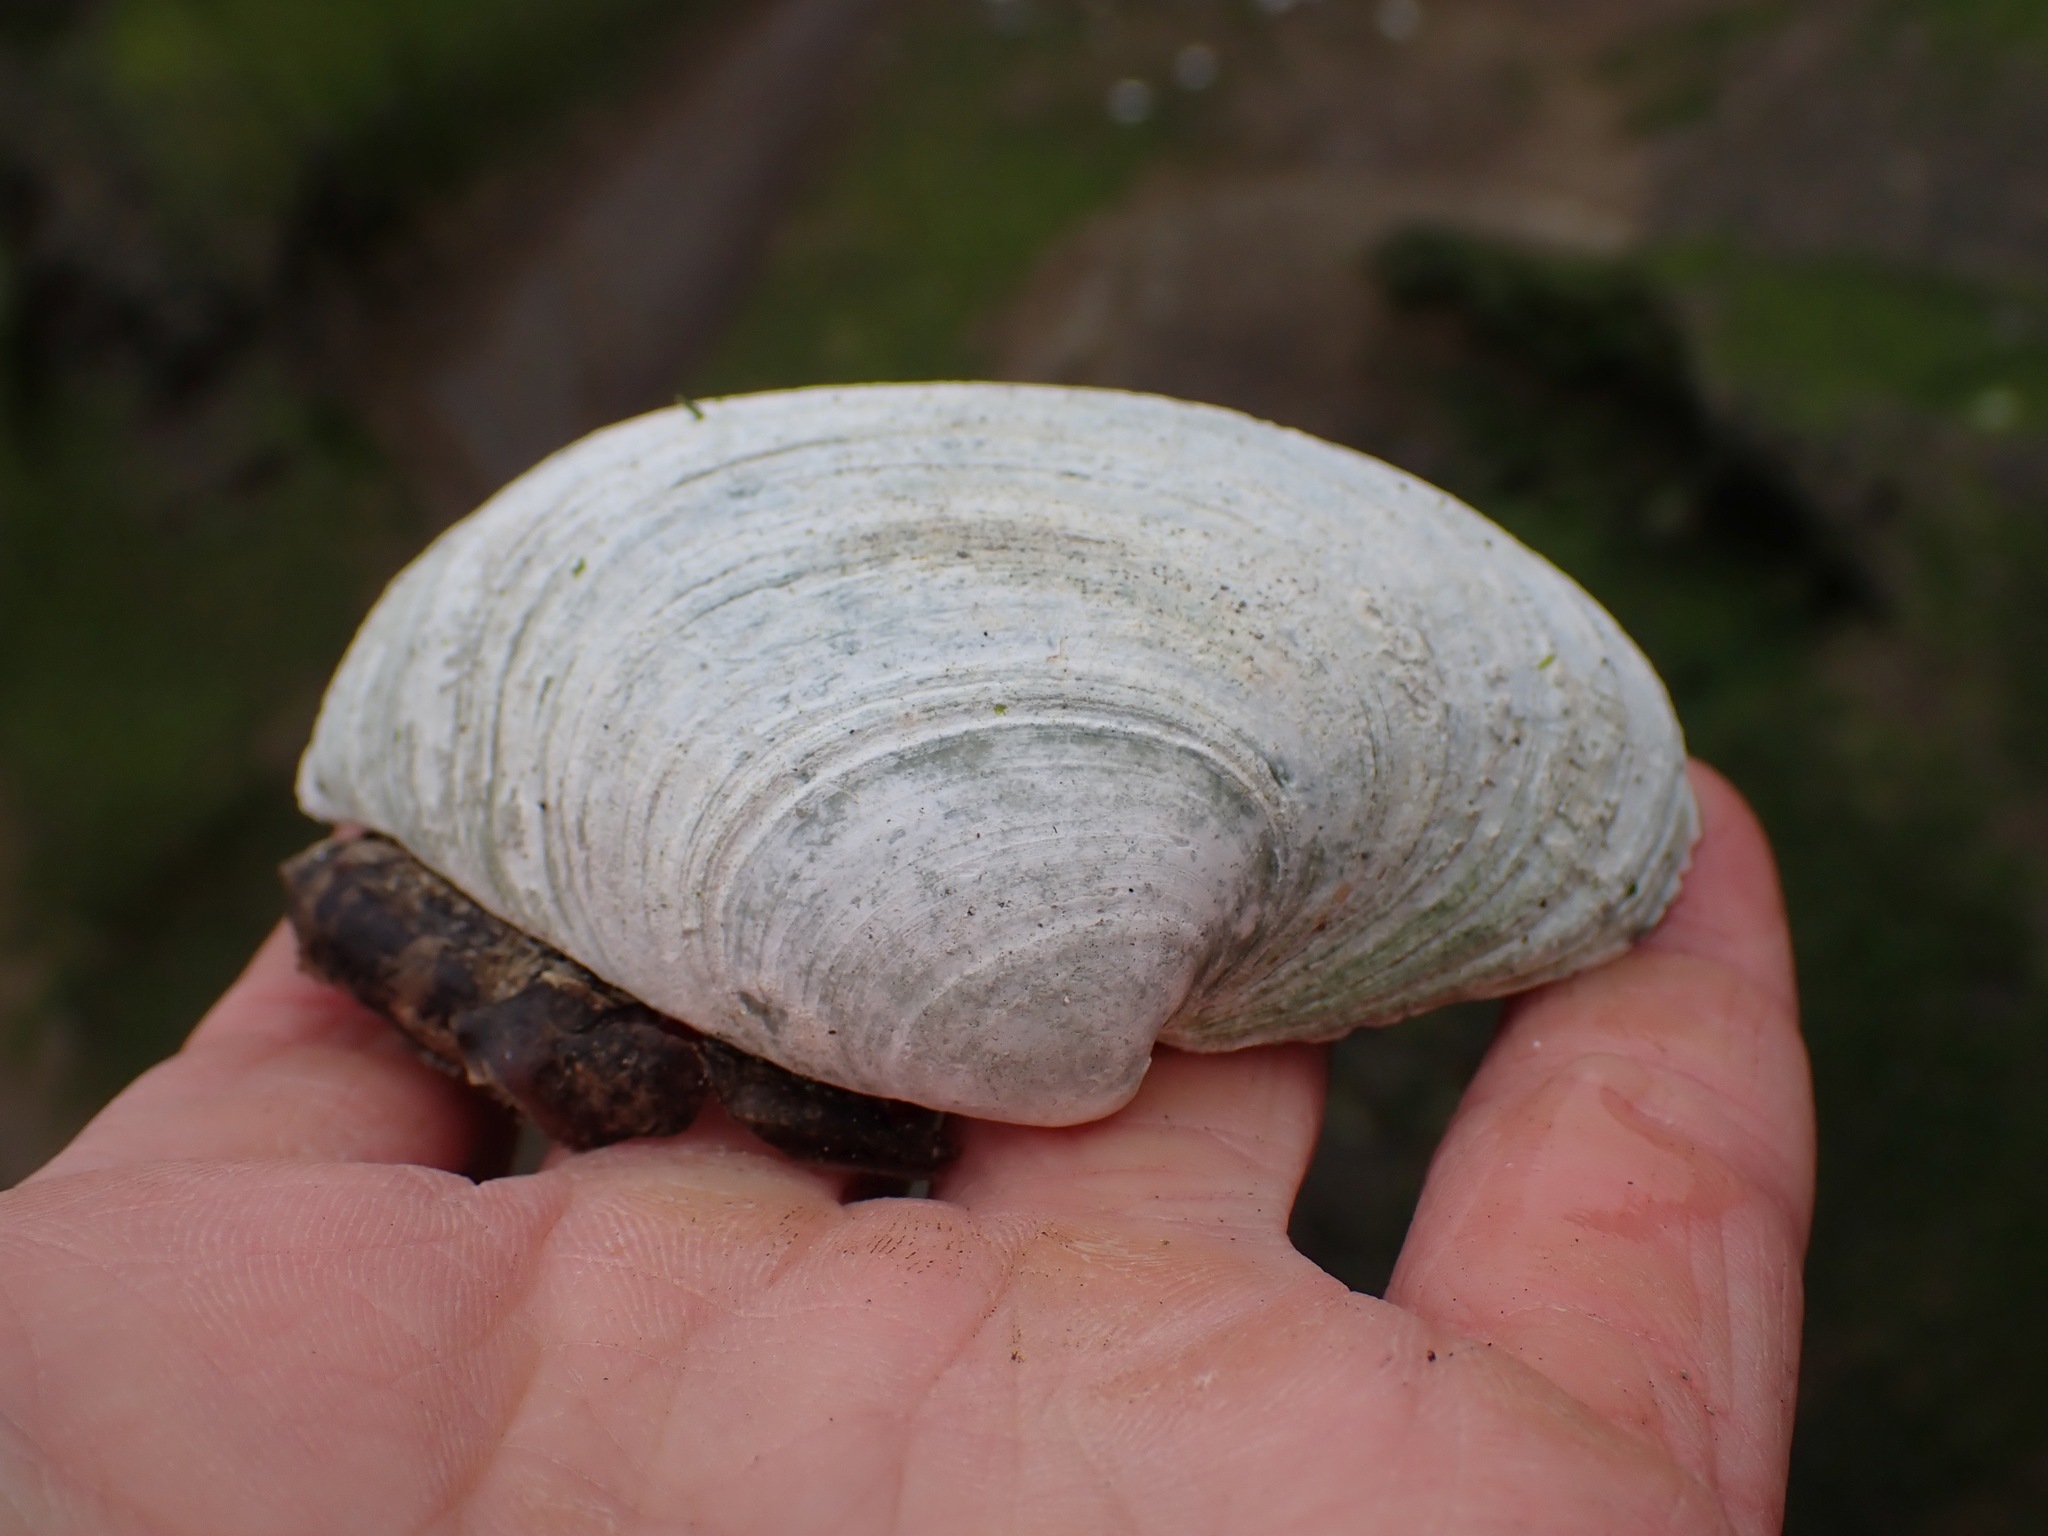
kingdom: Animalia
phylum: Mollusca
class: Bivalvia
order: Venerida
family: Veneridae
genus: Saxidomus
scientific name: Saxidomus gigantea
